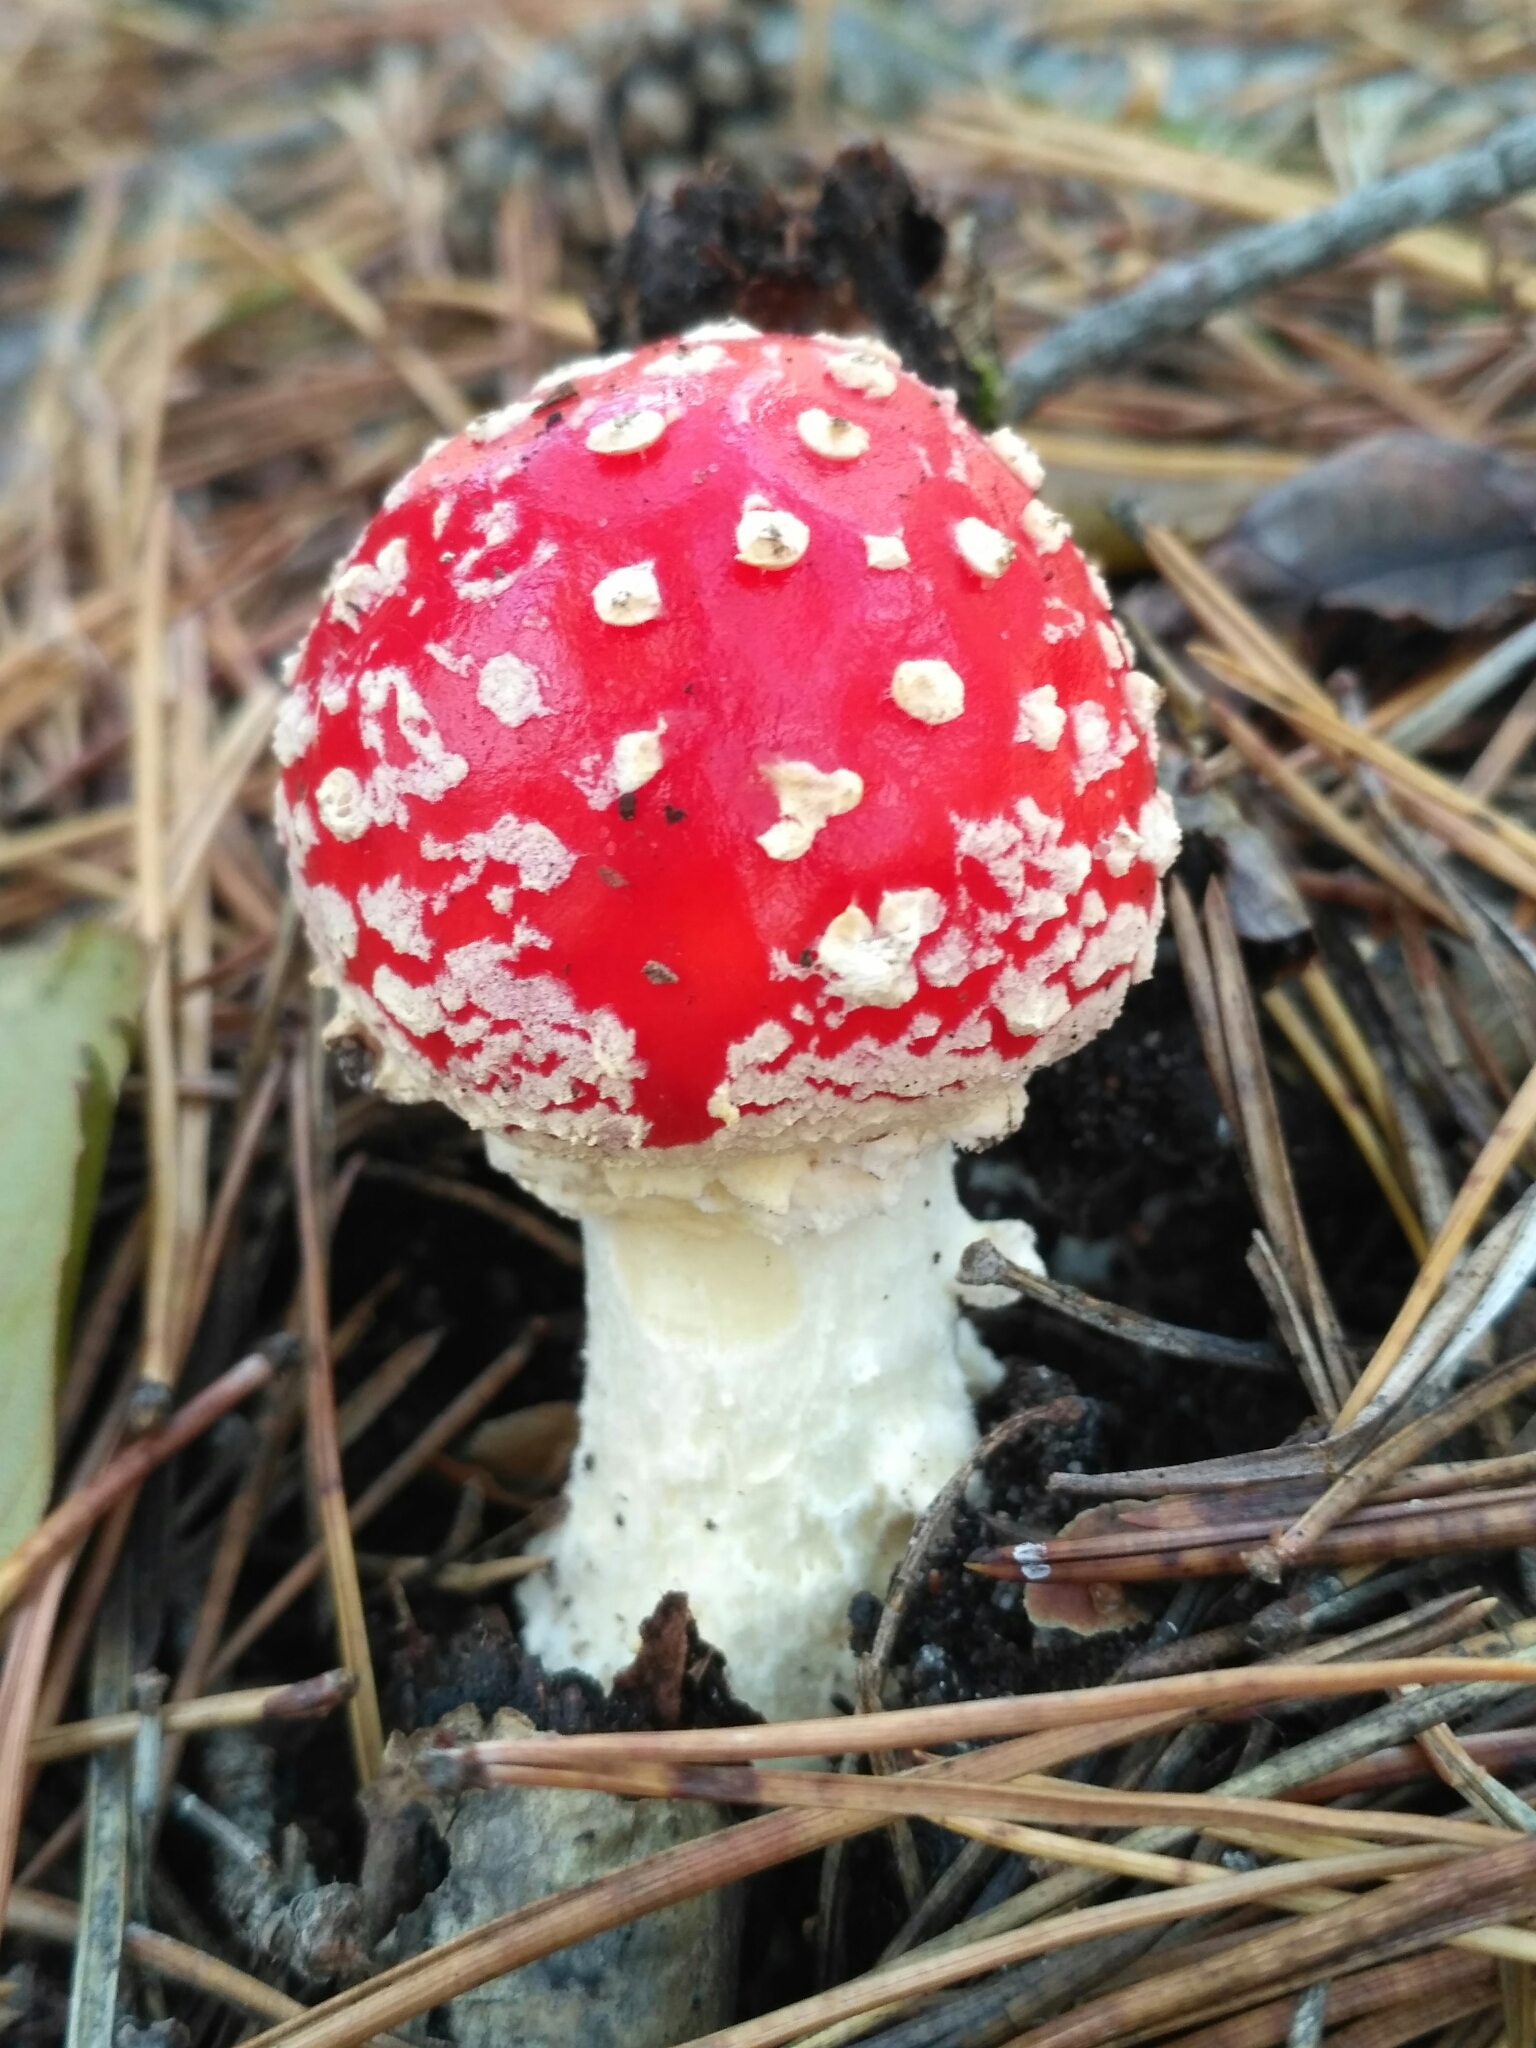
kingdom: Fungi
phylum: Basidiomycota
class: Agaricomycetes
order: Agaricales
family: Amanitaceae
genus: Amanita
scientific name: Amanita muscaria
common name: Fly agaric
